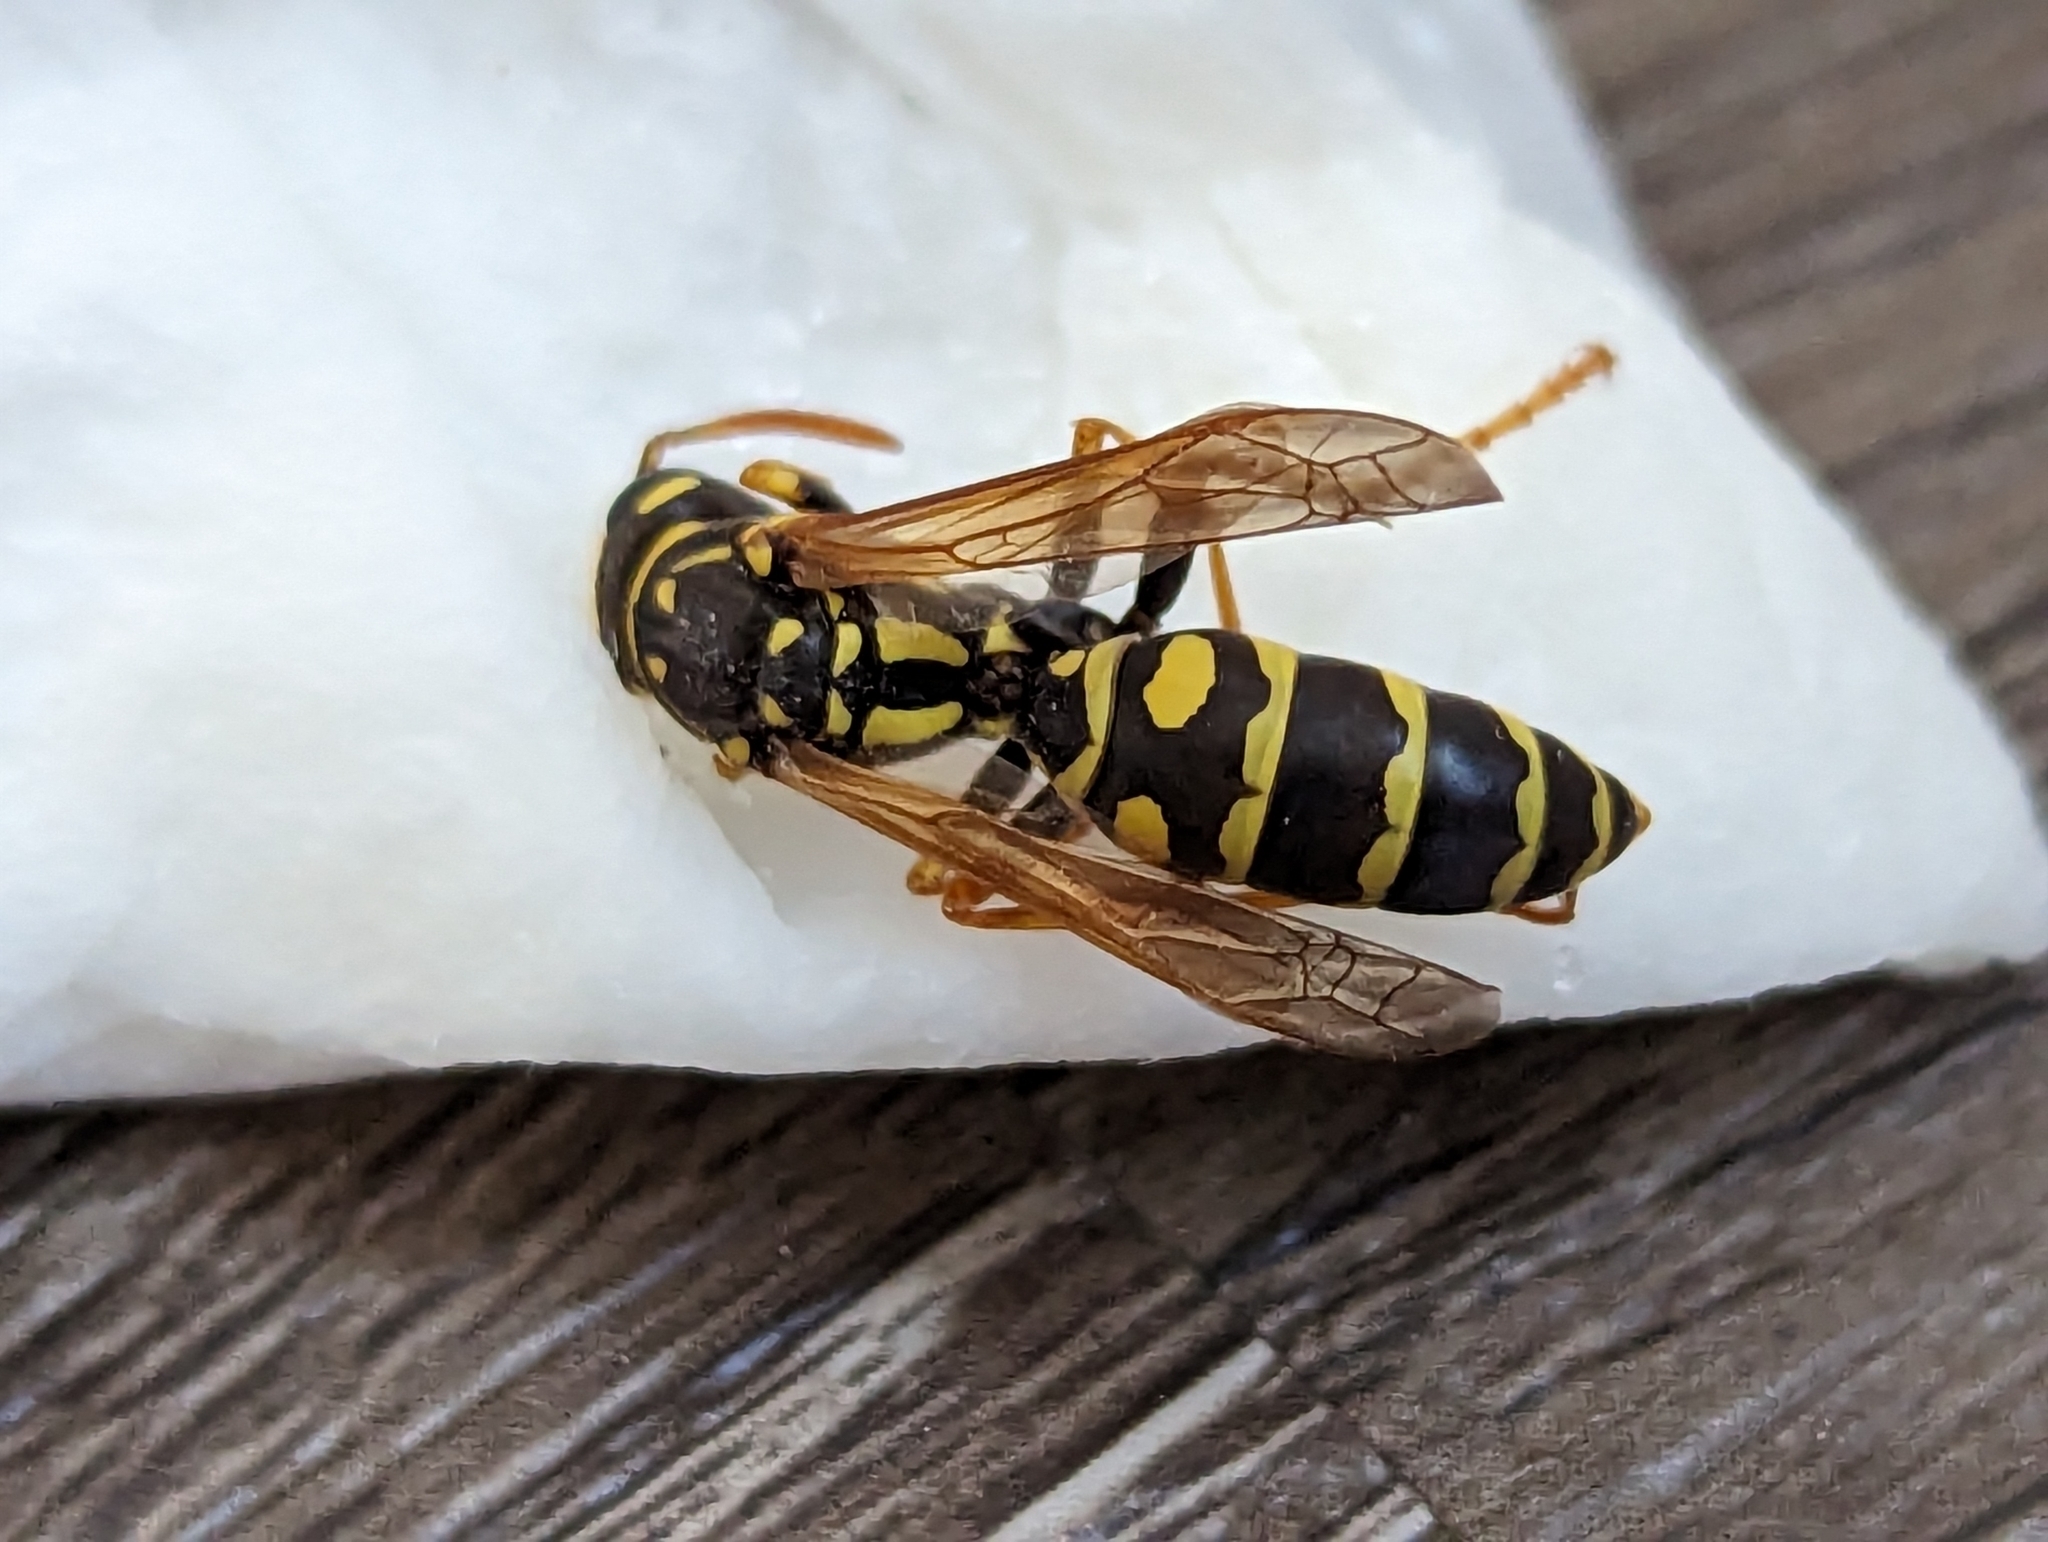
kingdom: Animalia
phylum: Arthropoda
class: Insecta
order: Hymenoptera
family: Eumenidae
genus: Polistes
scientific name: Polistes dominula
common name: Paper wasp
